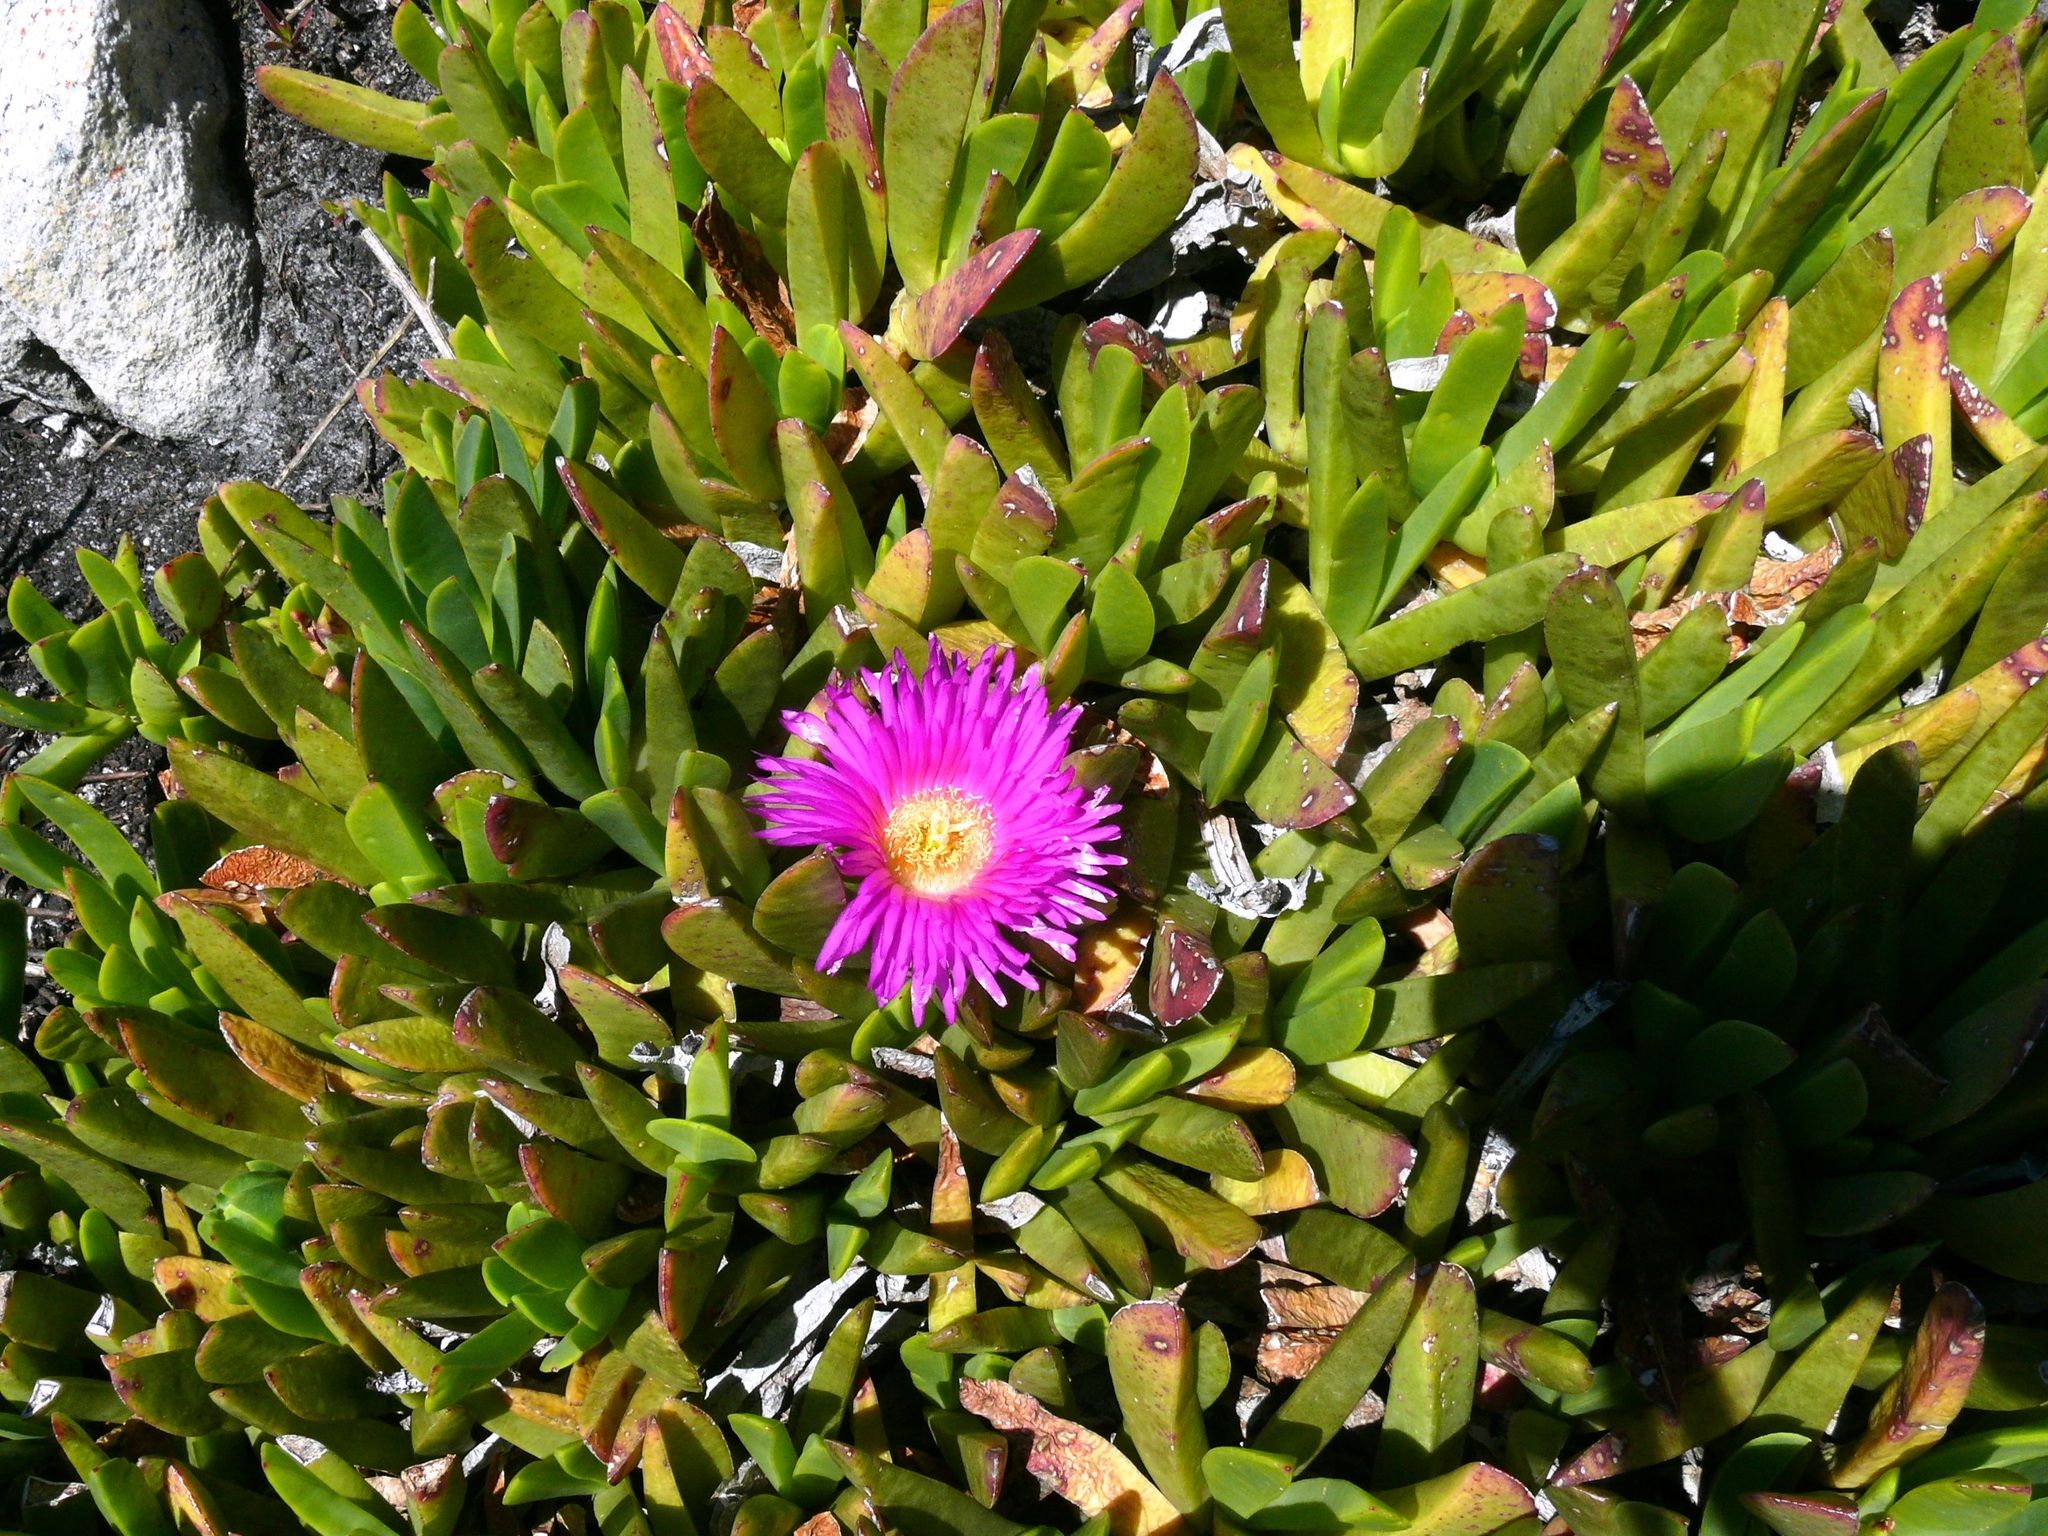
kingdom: Plantae
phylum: Tracheophyta
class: Magnoliopsida
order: Caryophyllales
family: Aizoaceae
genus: Carpobrotus
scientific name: Carpobrotus mellei
